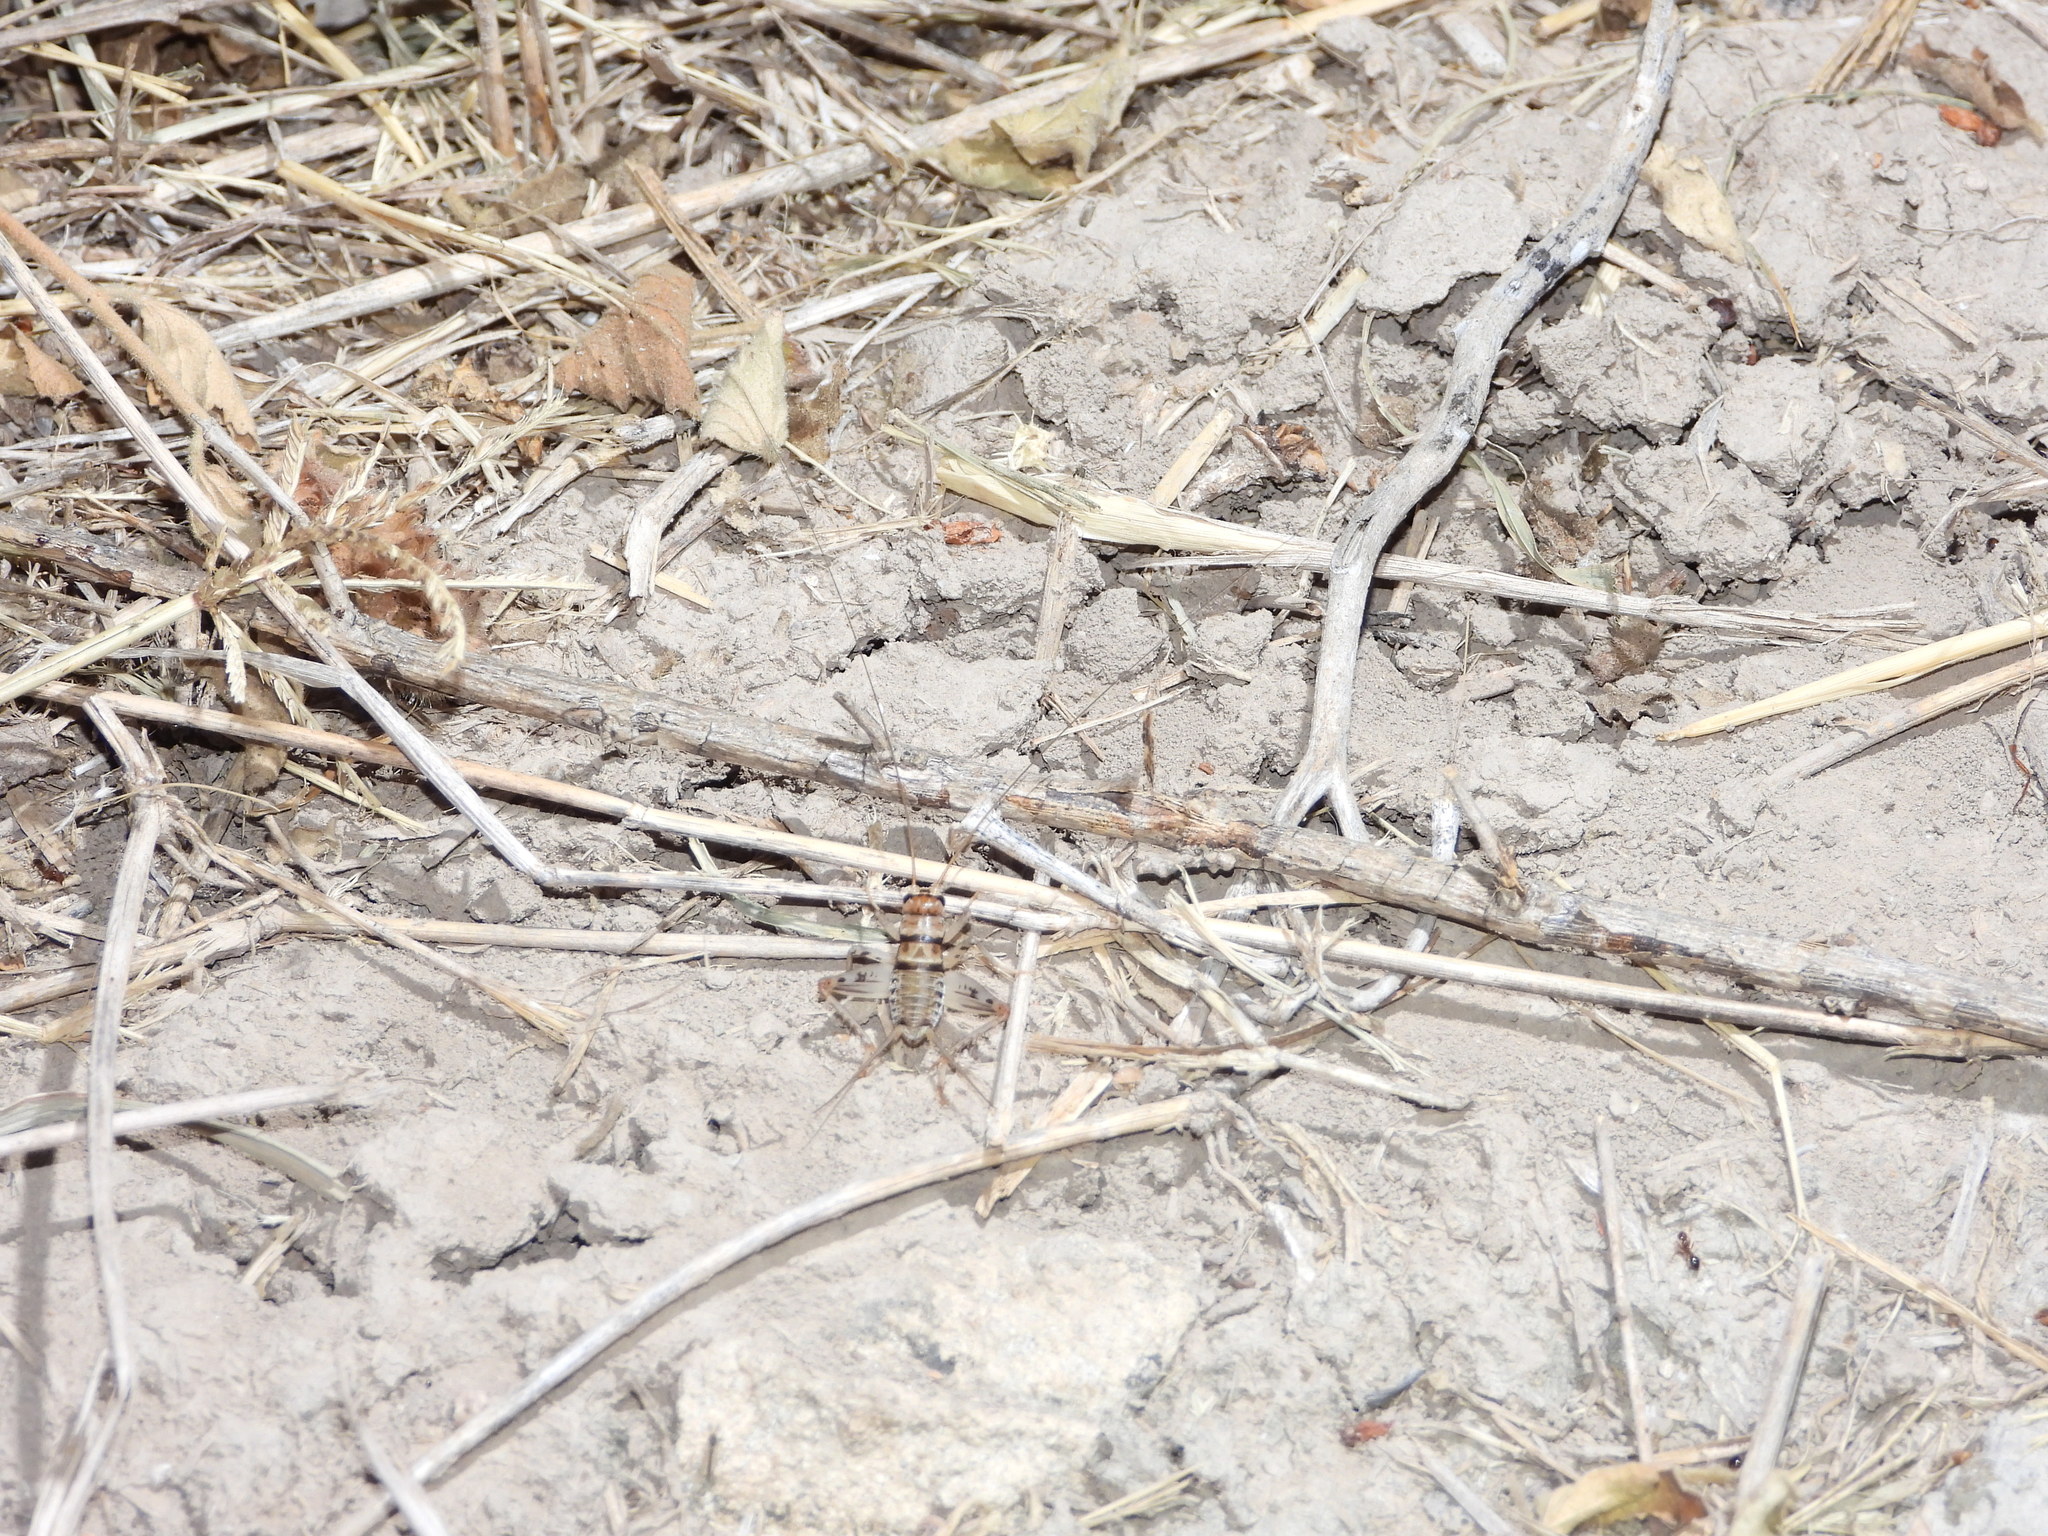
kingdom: Animalia
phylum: Arthropoda
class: Insecta
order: Orthoptera
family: Gryllidae
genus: Gryllodes
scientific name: Gryllodes sigillatus
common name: Tropical house cricket
